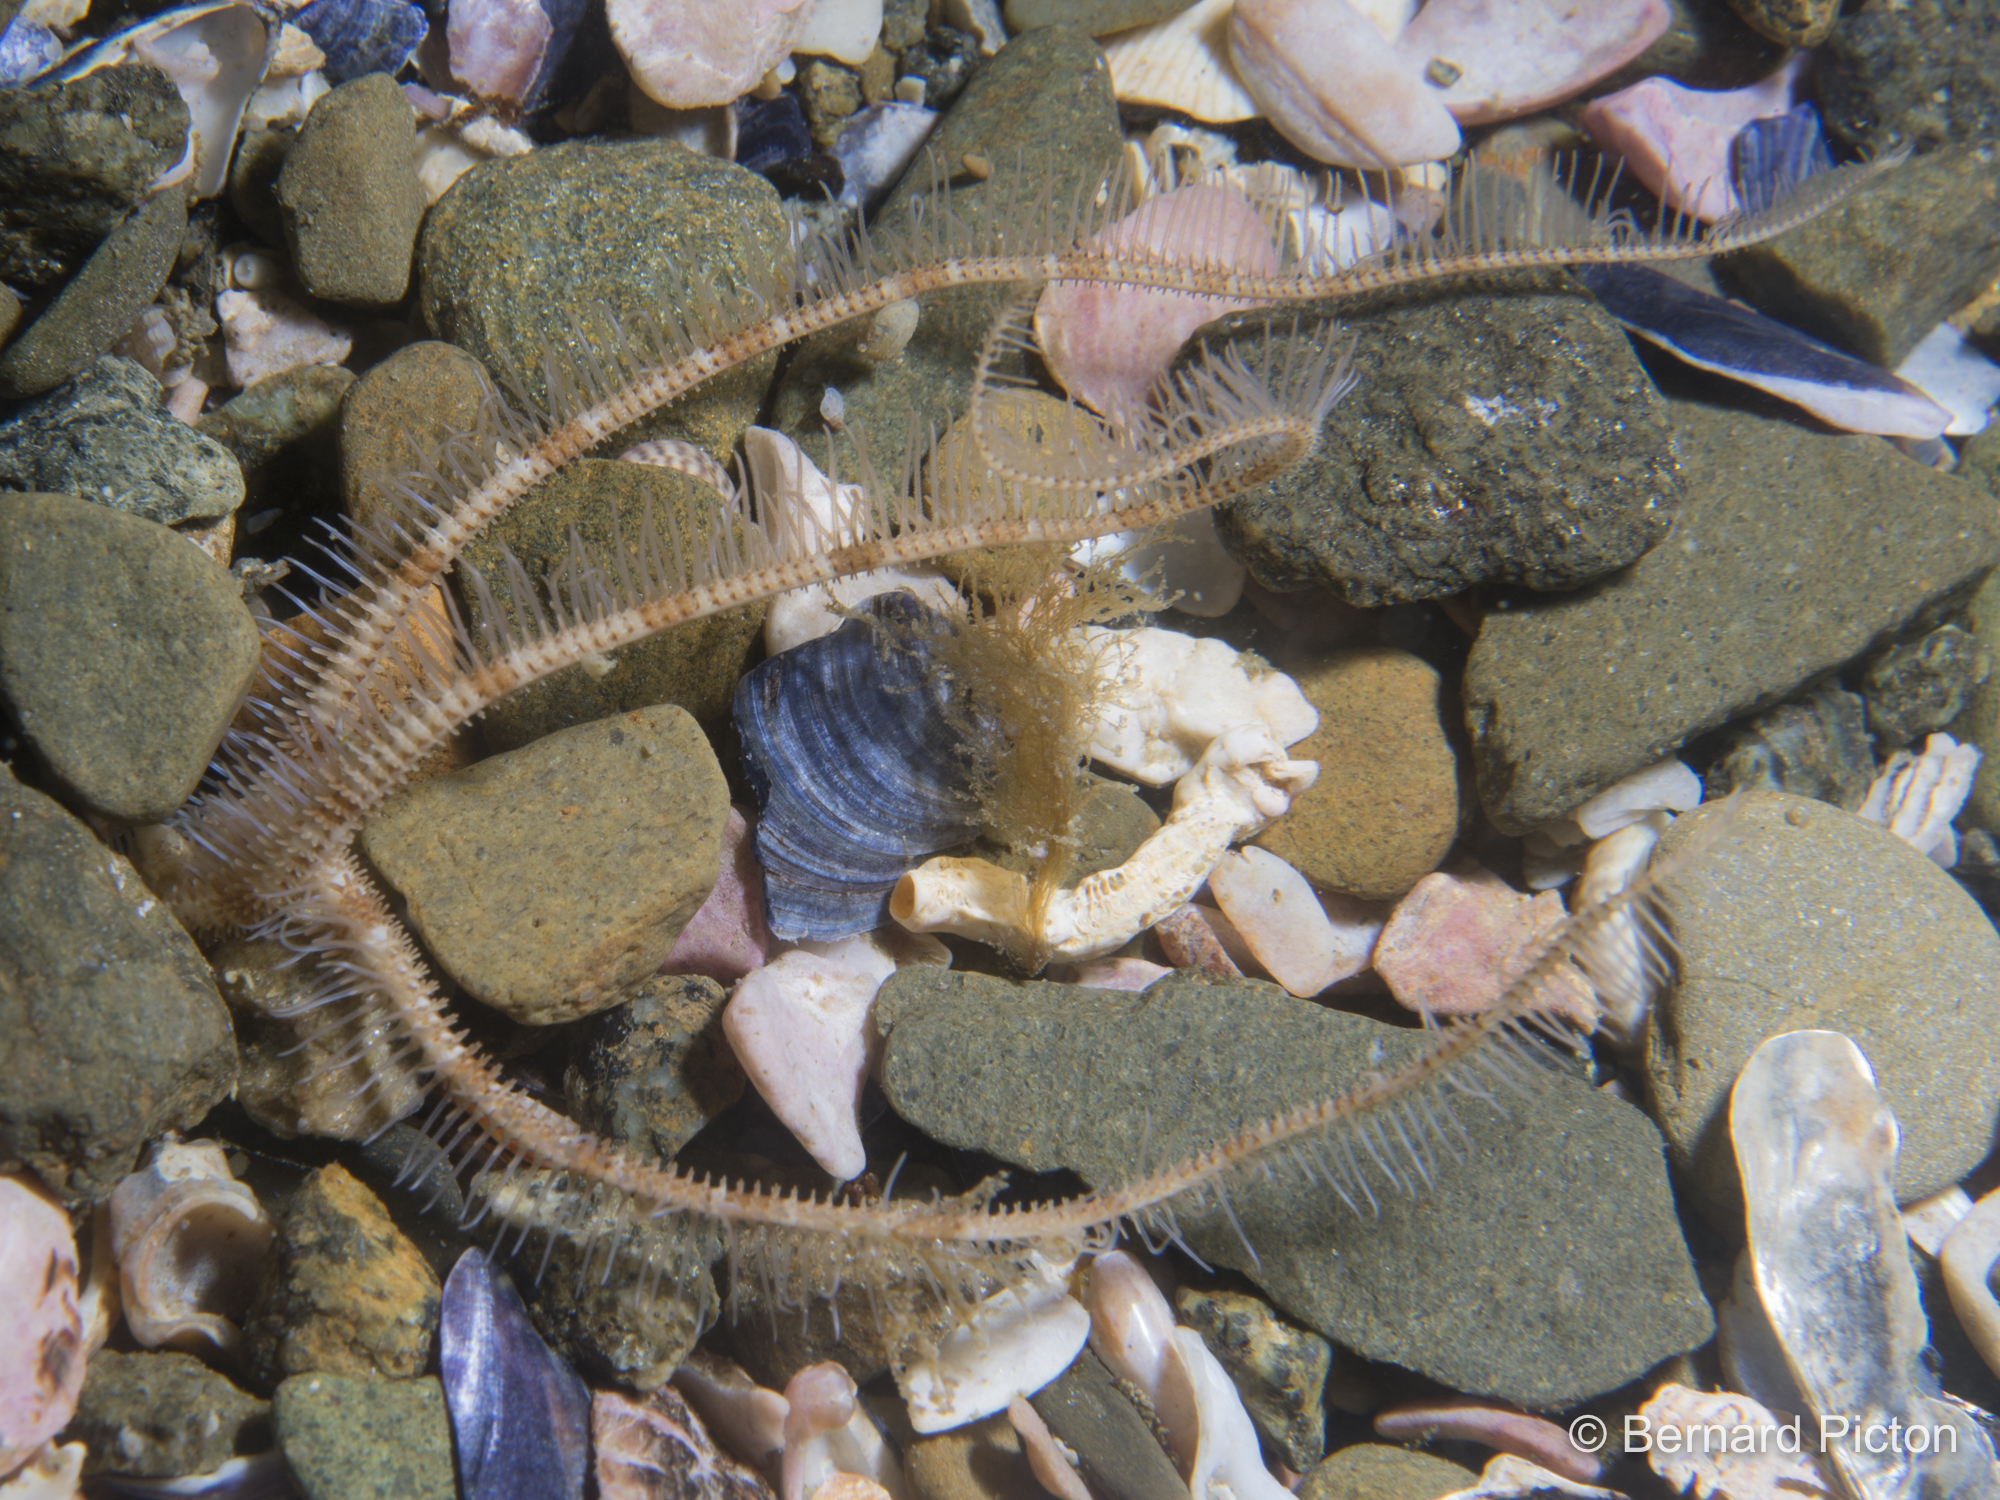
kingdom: Animalia
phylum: Echinodermata
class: Ophiuroidea
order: Amphilepidida
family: Ophiopsilidae
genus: Ophiopsila
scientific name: Ophiopsila annulosa
